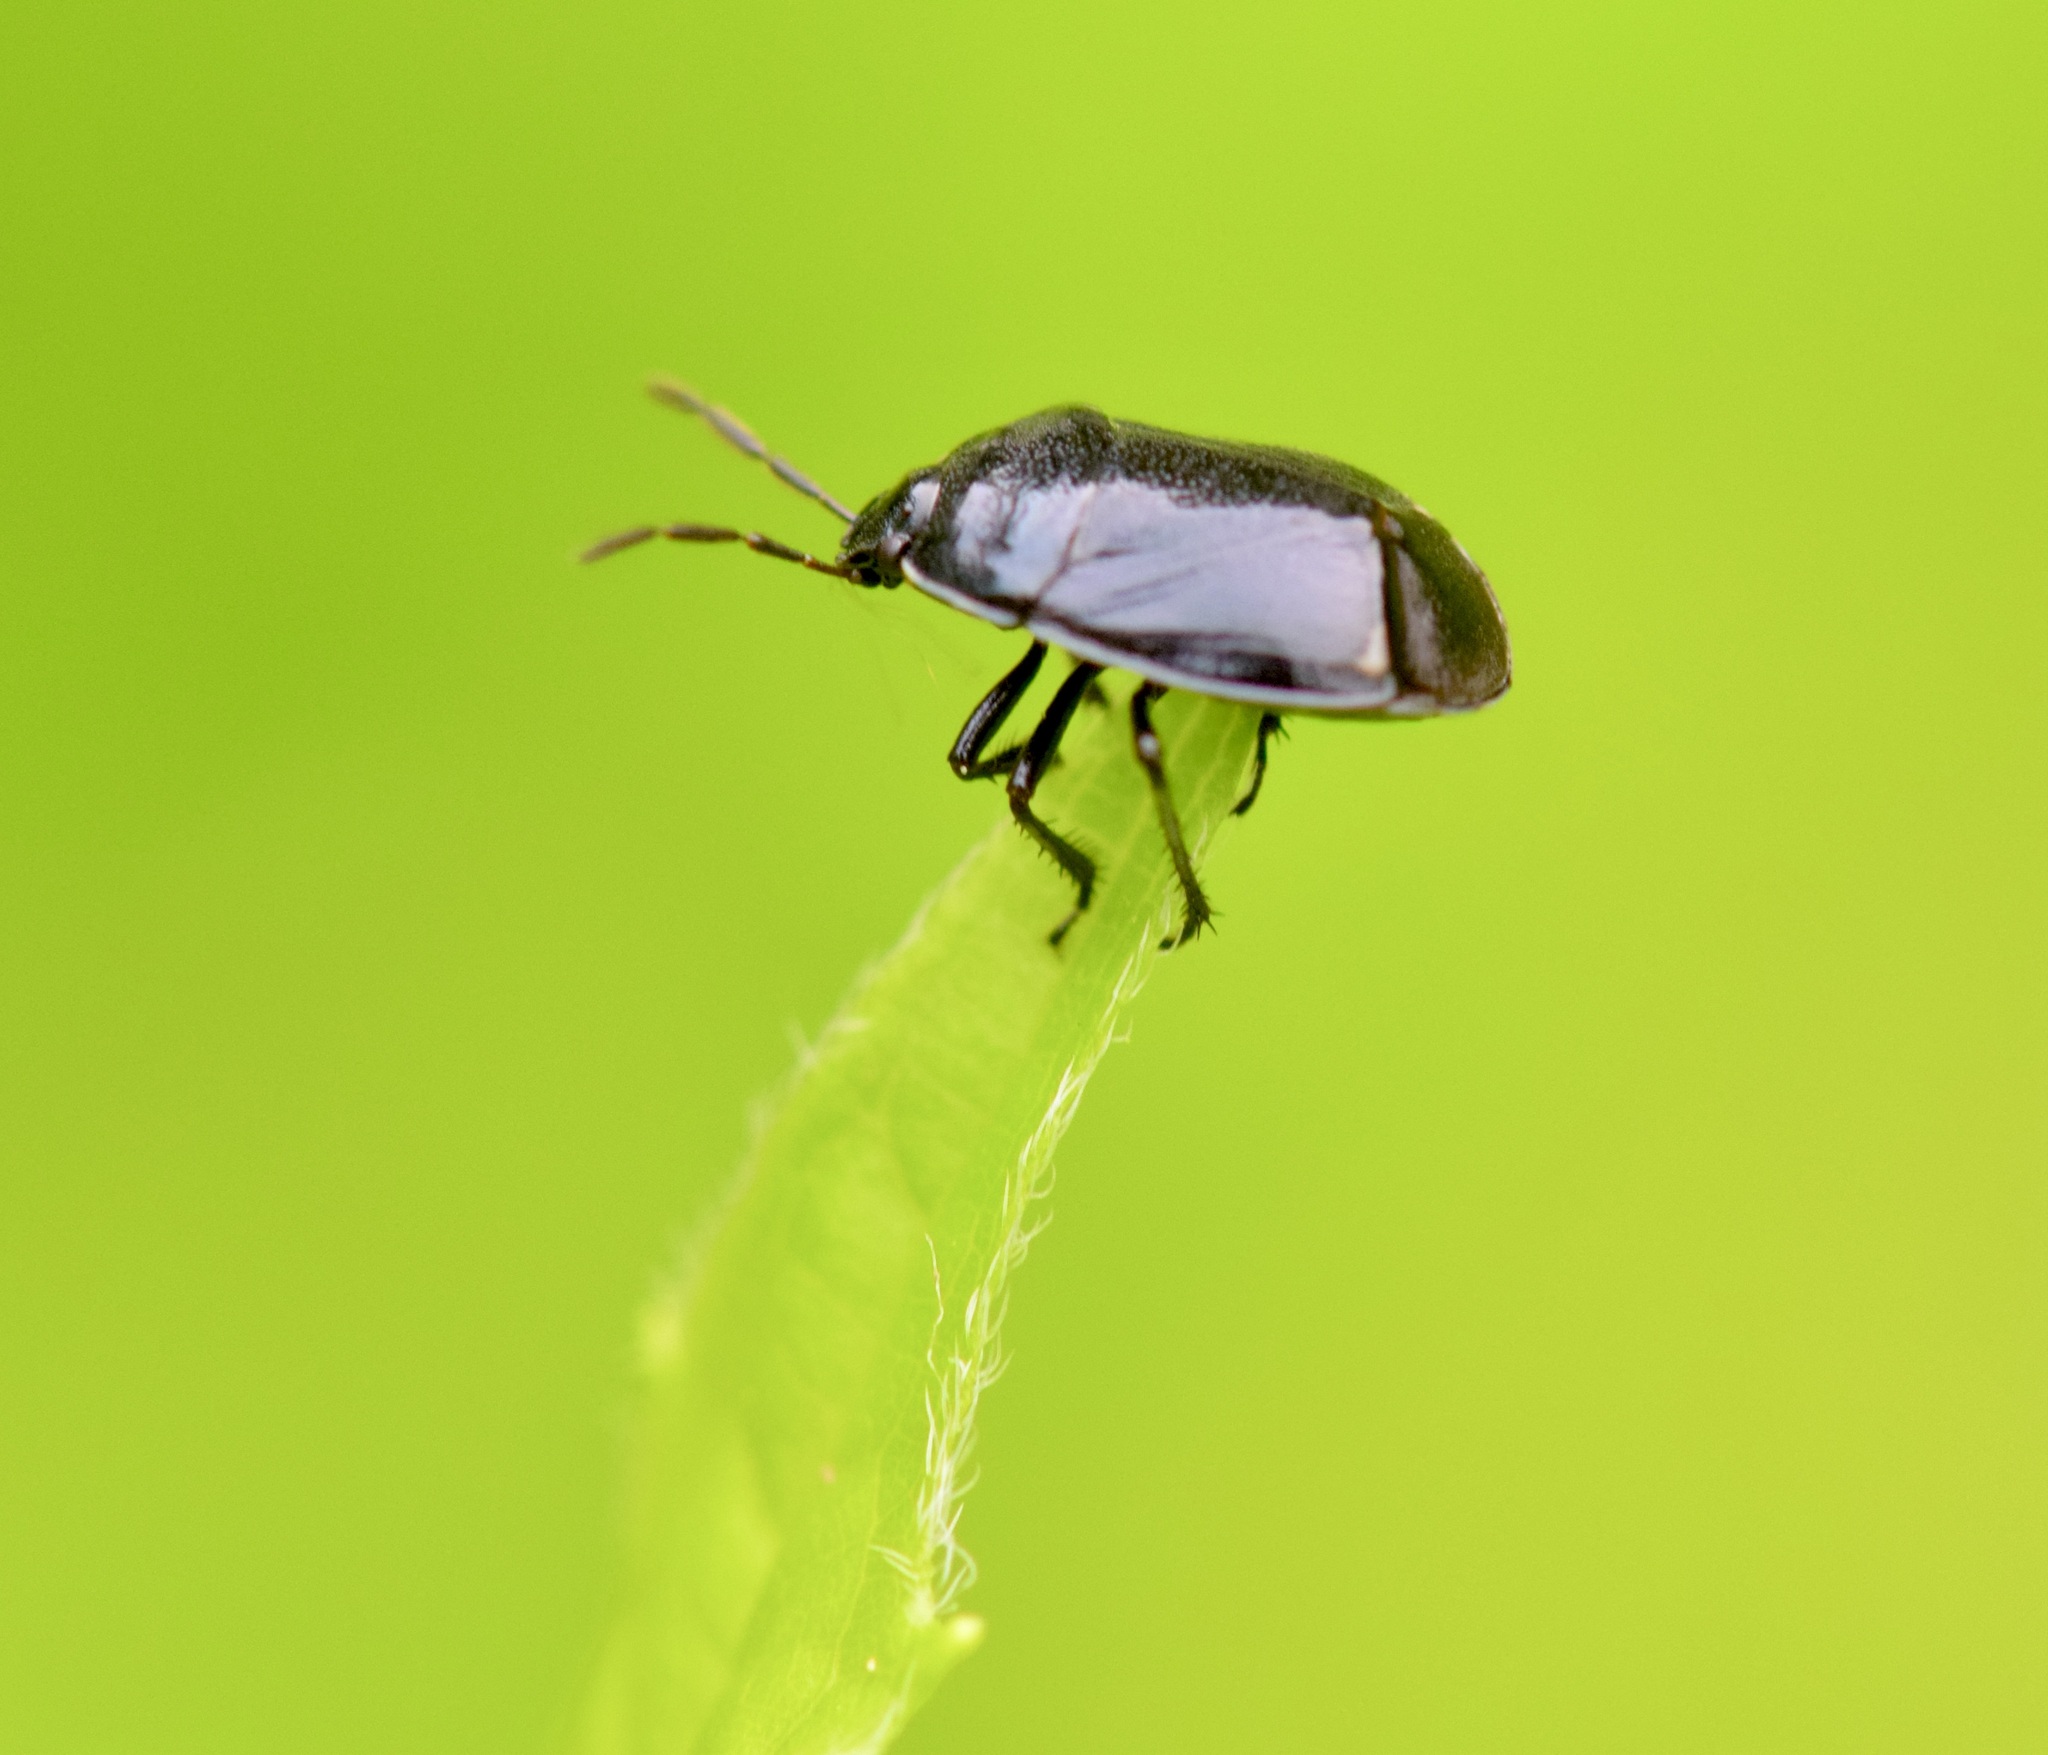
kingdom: Animalia
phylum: Arthropoda
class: Insecta
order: Hemiptera
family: Cydnidae
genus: Sehirus
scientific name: Sehirus cinctus
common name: White-margined burrower bug
